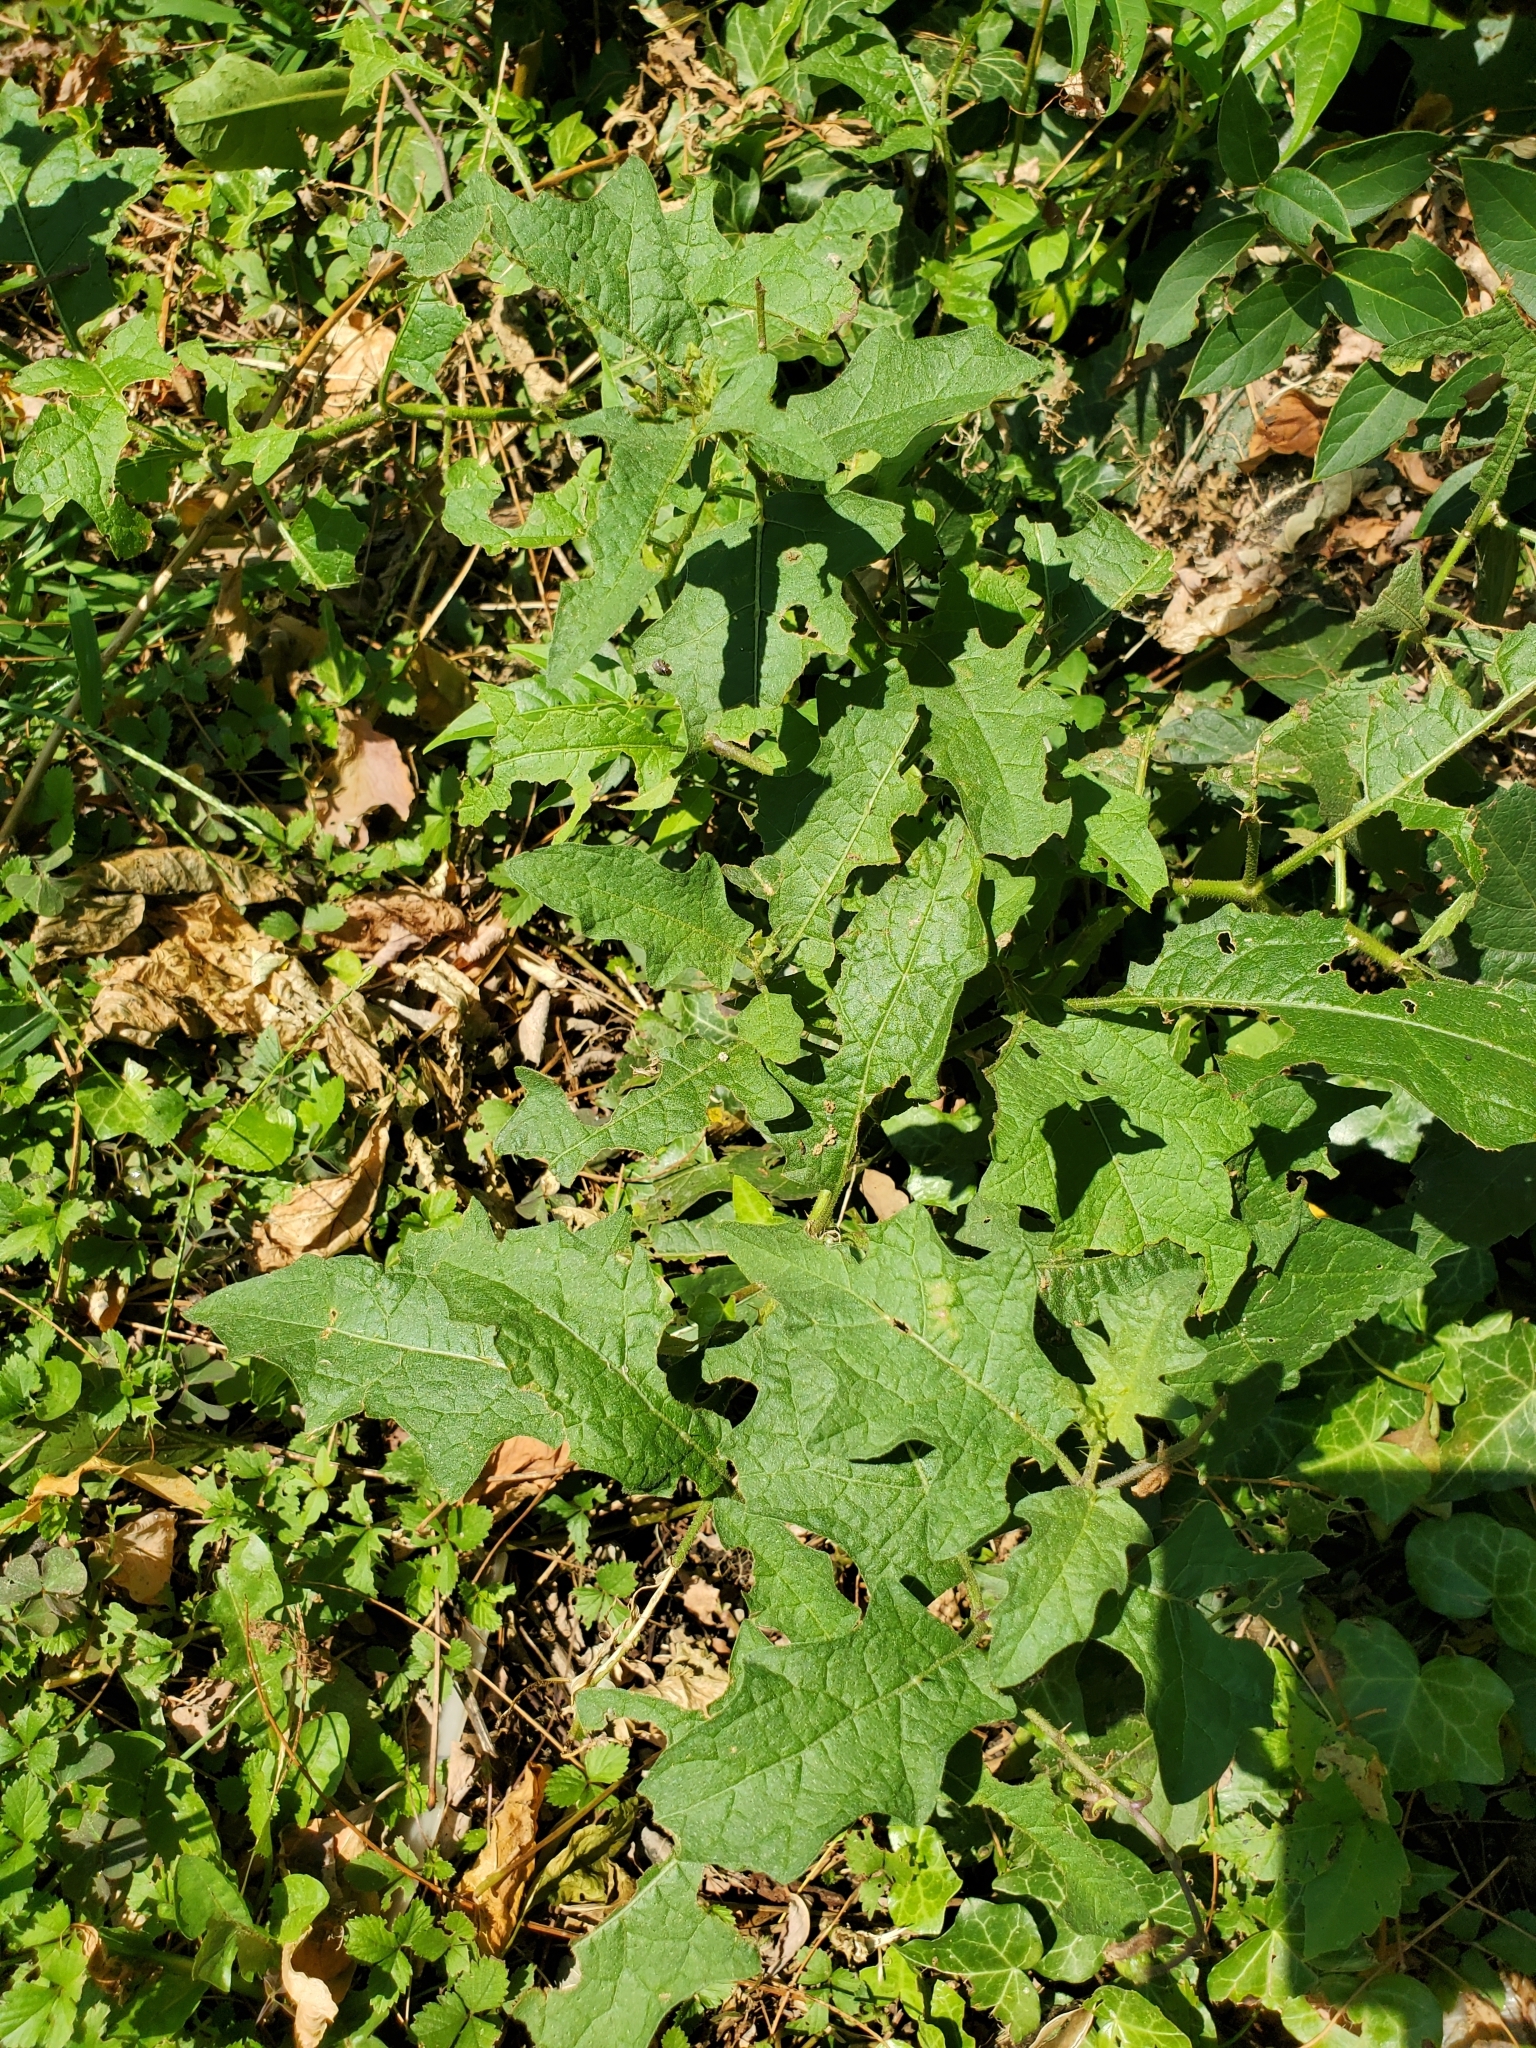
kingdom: Plantae
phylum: Tracheophyta
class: Magnoliopsida
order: Solanales
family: Solanaceae
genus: Solanum
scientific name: Solanum carolinense
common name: Horse-nettle
